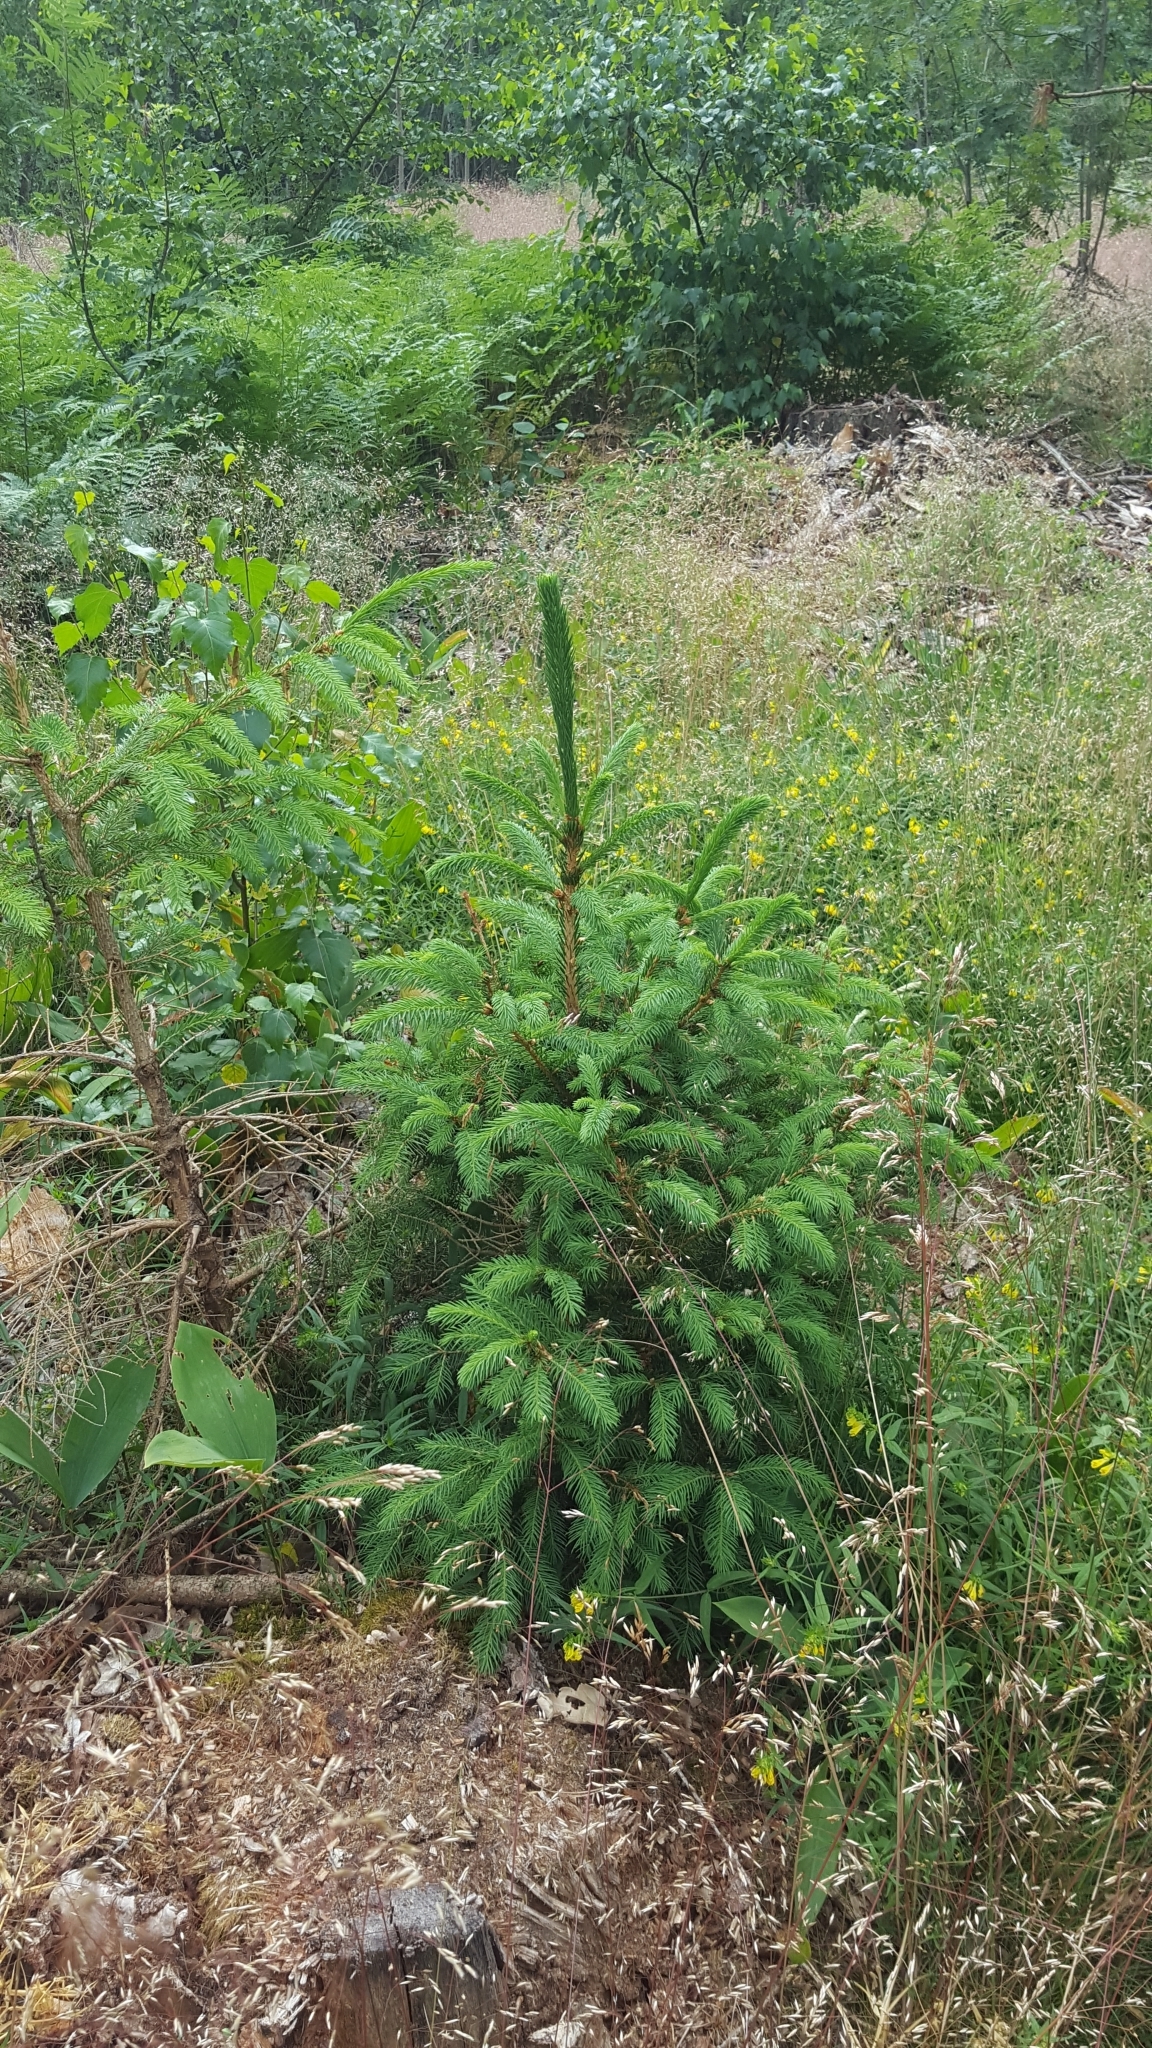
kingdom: Plantae
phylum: Tracheophyta
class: Pinopsida
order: Pinales
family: Pinaceae
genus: Picea
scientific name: Picea abies
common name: Norway spruce
